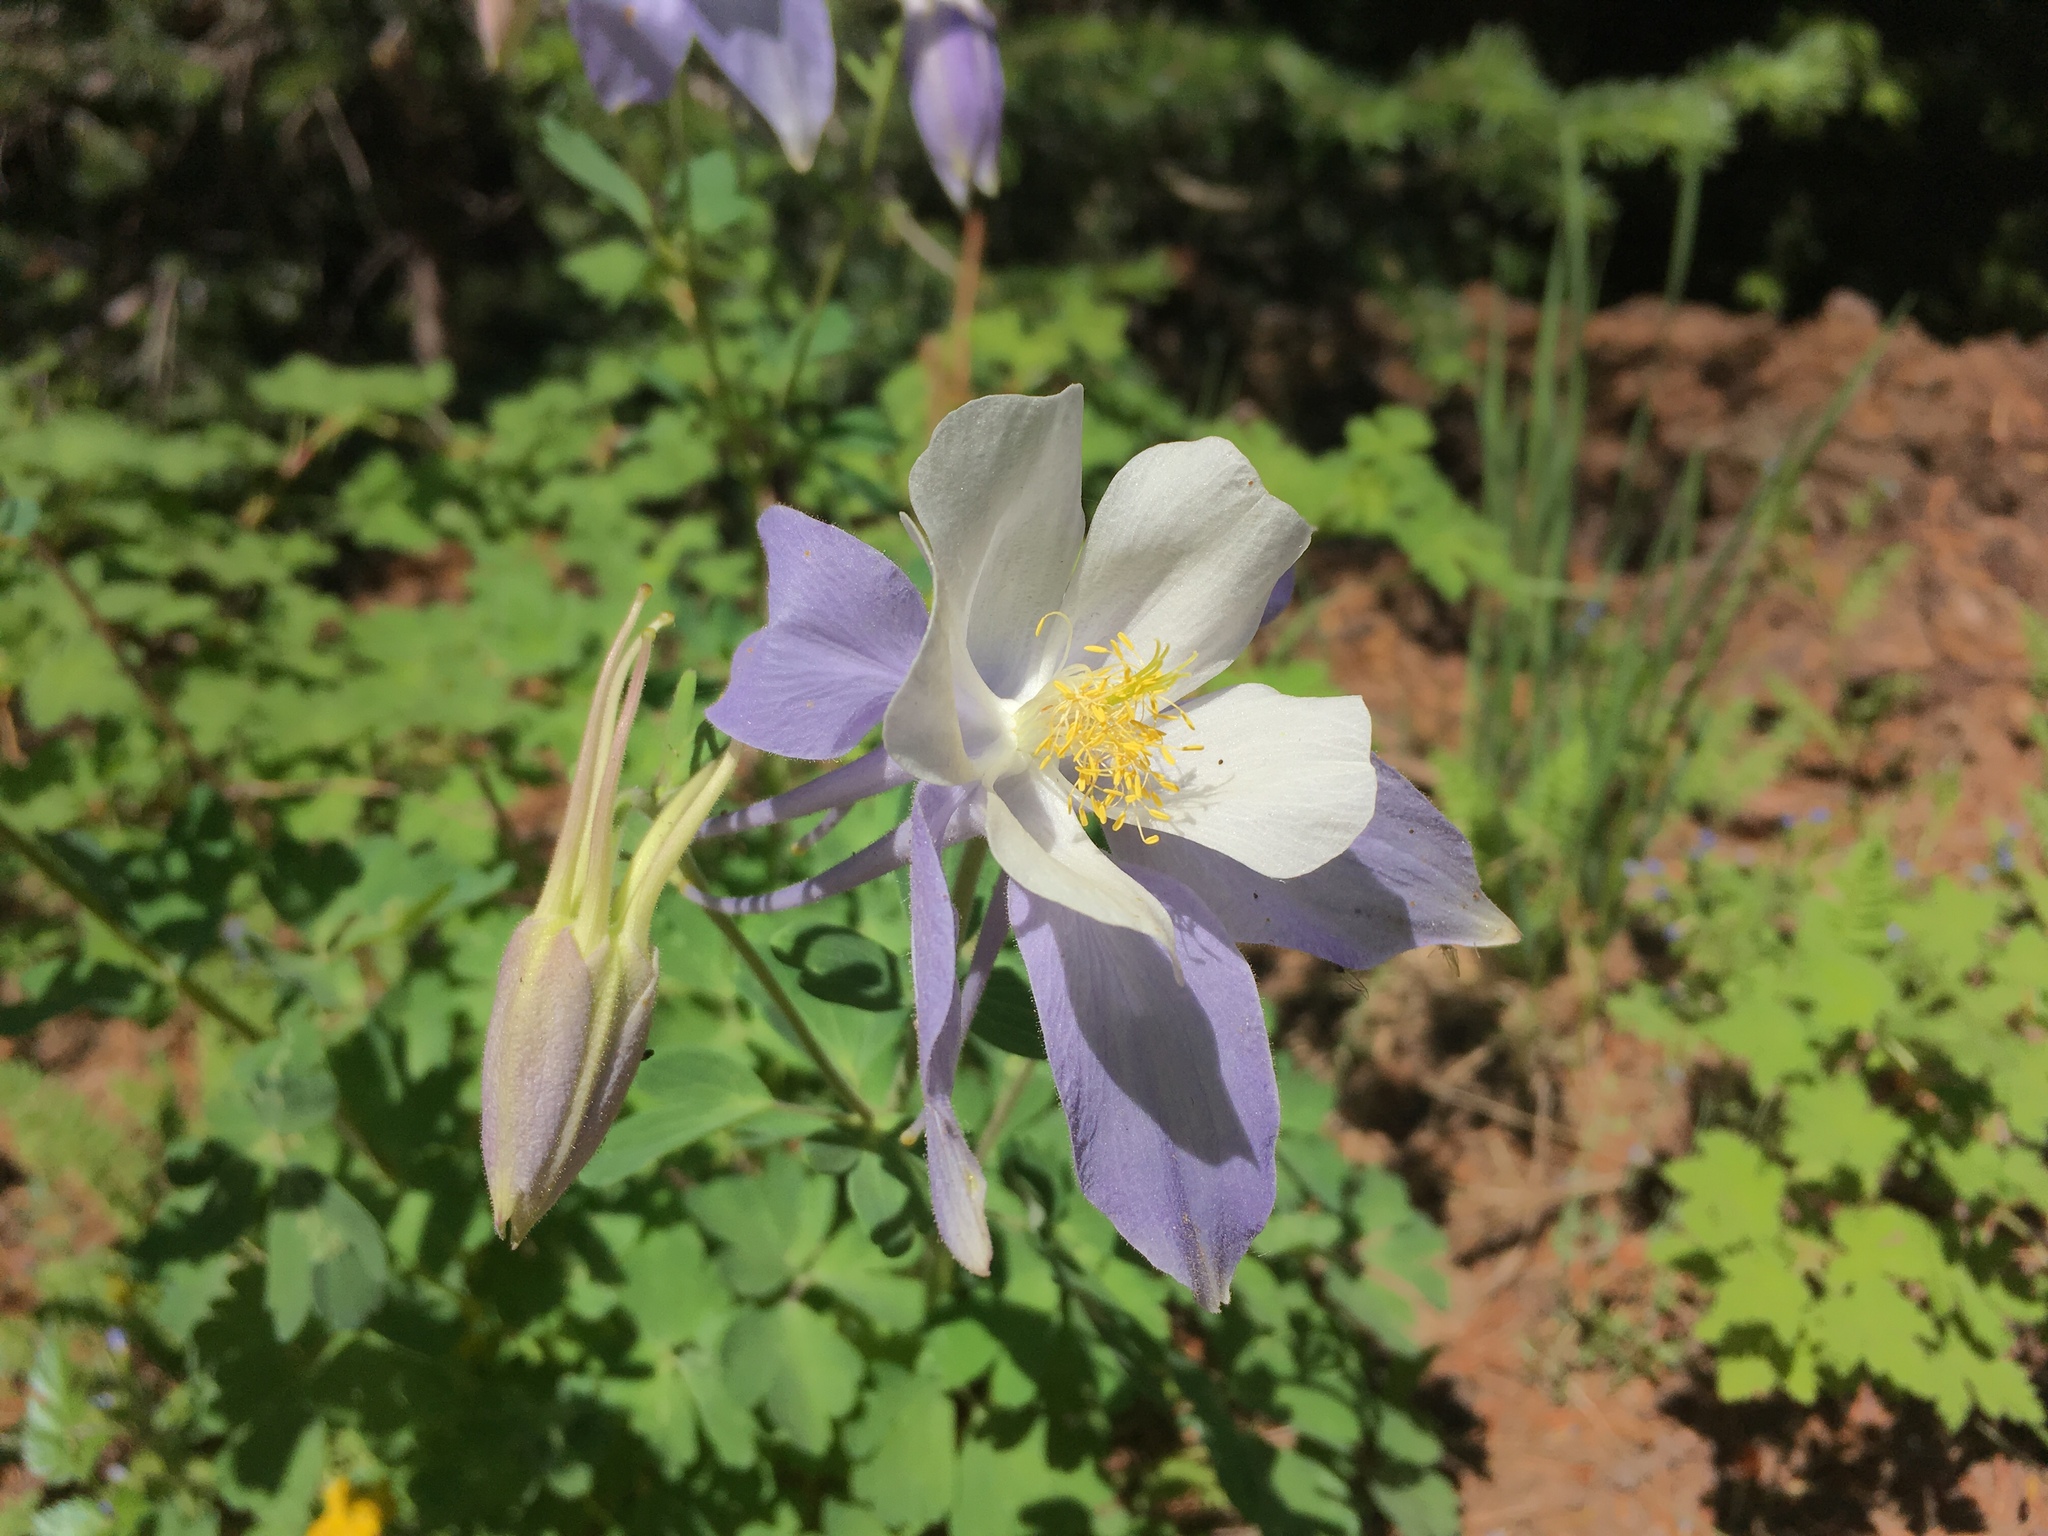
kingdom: Plantae
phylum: Tracheophyta
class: Magnoliopsida
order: Ranunculales
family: Ranunculaceae
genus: Aquilegia
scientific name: Aquilegia coerulea
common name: Rocky mountain columbine
